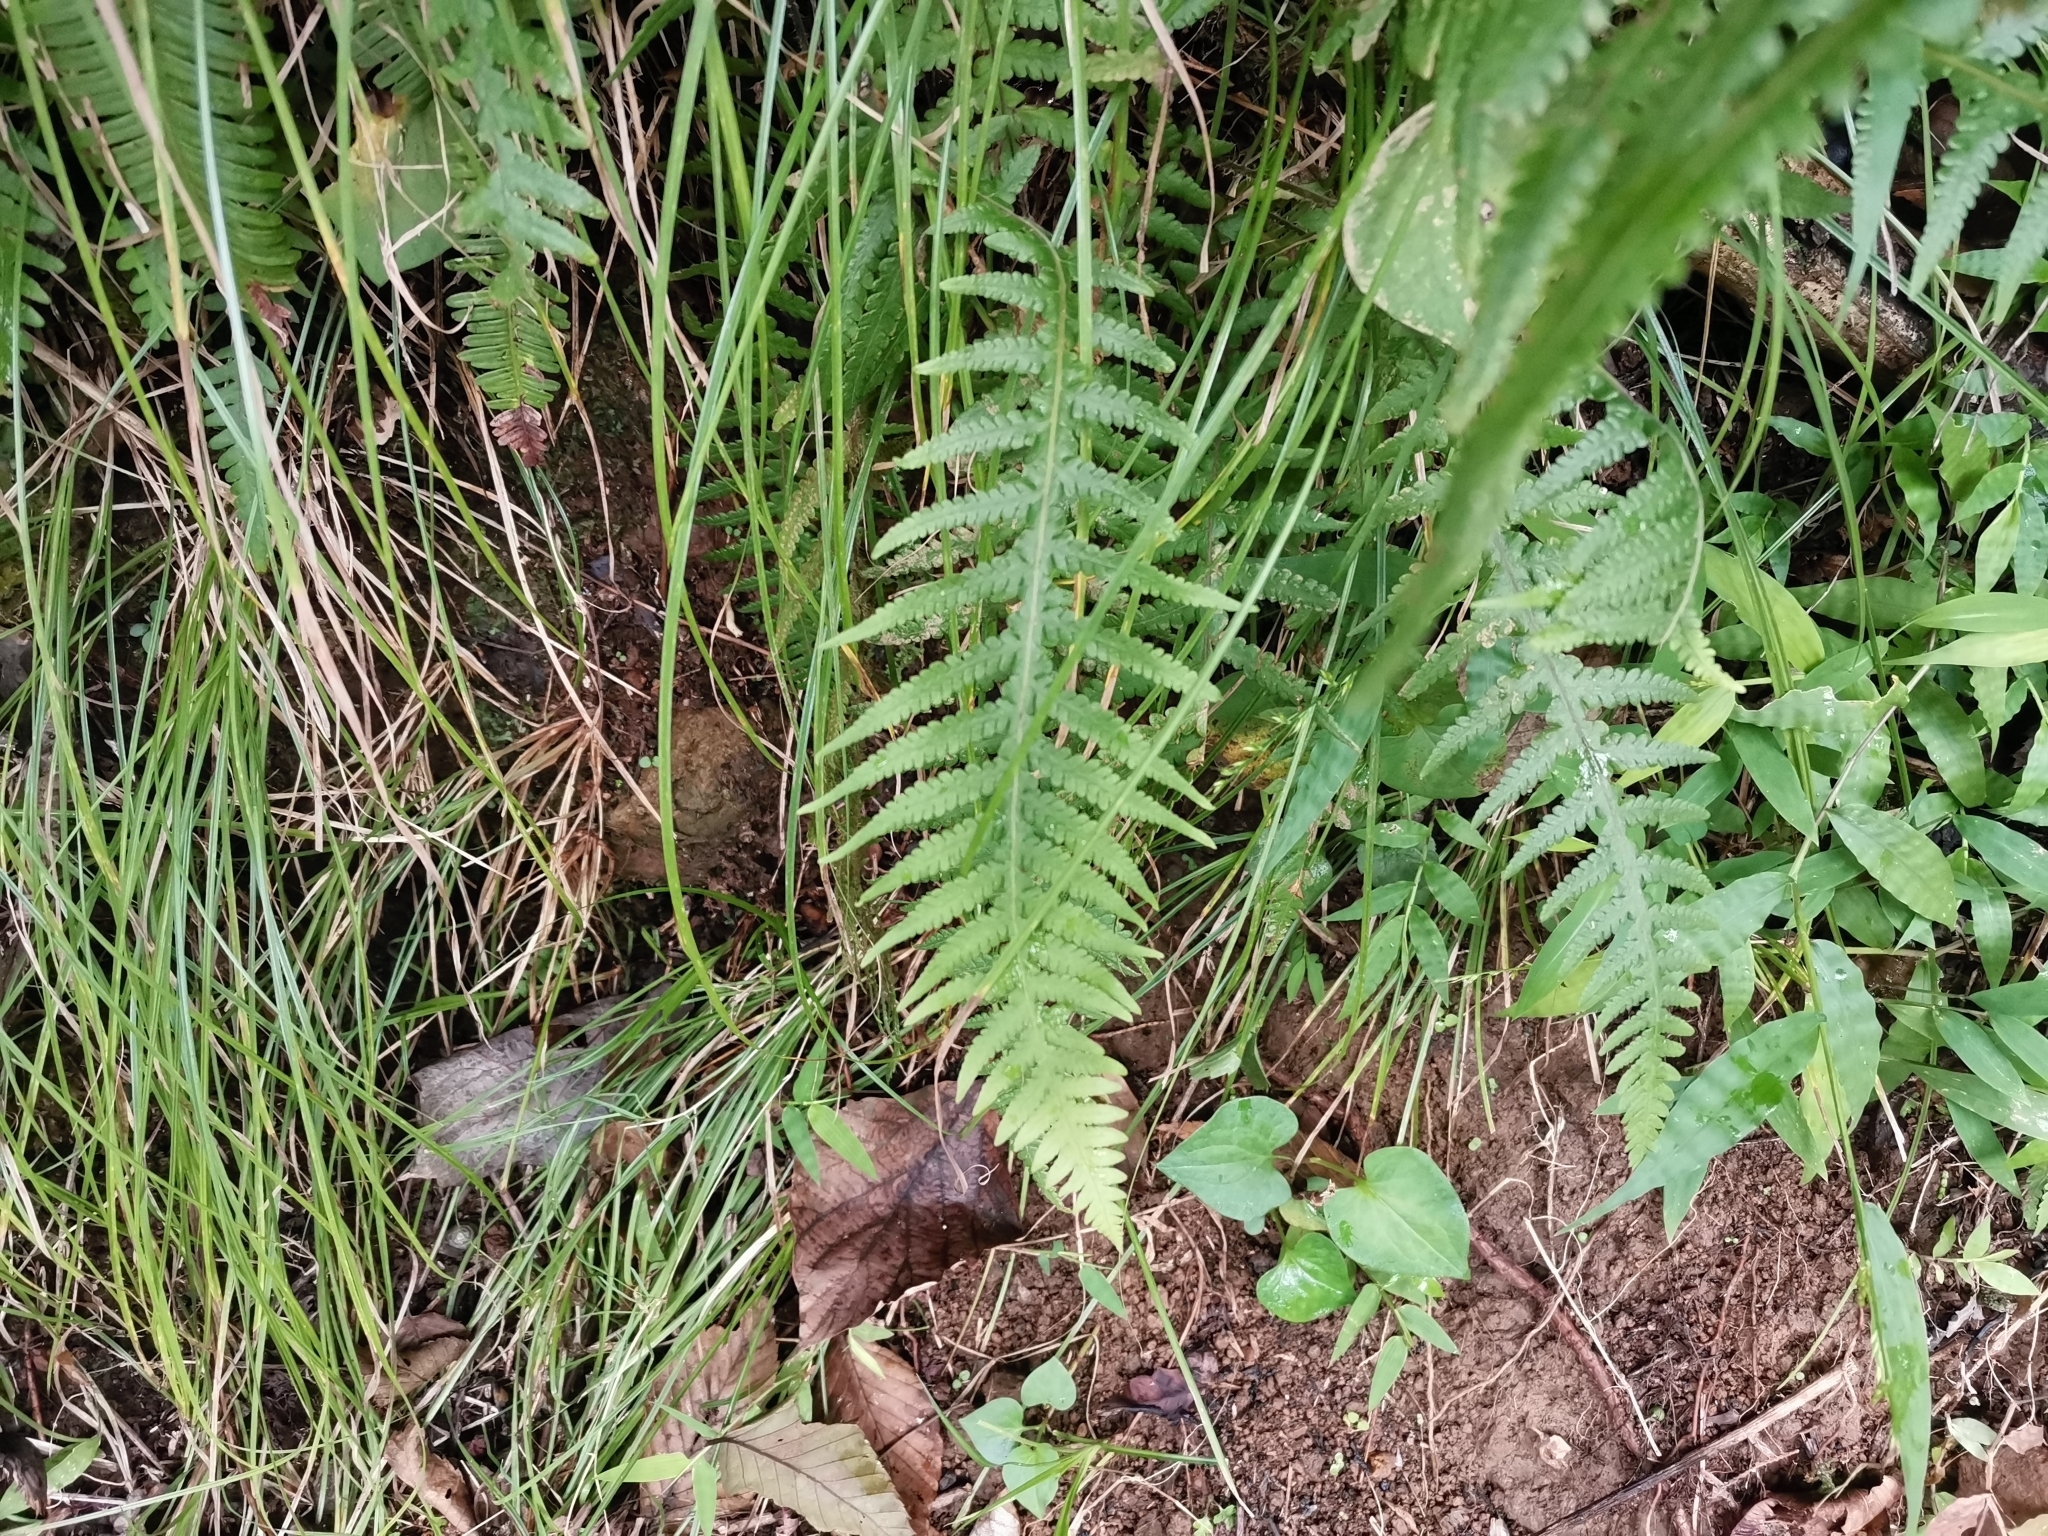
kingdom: Plantae
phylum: Tracheophyta
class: Polypodiopsida
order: Polypodiales
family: Thelypteridaceae
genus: Phegopteris
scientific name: Phegopteris decursive-pinnata
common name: Japanese beech fern
